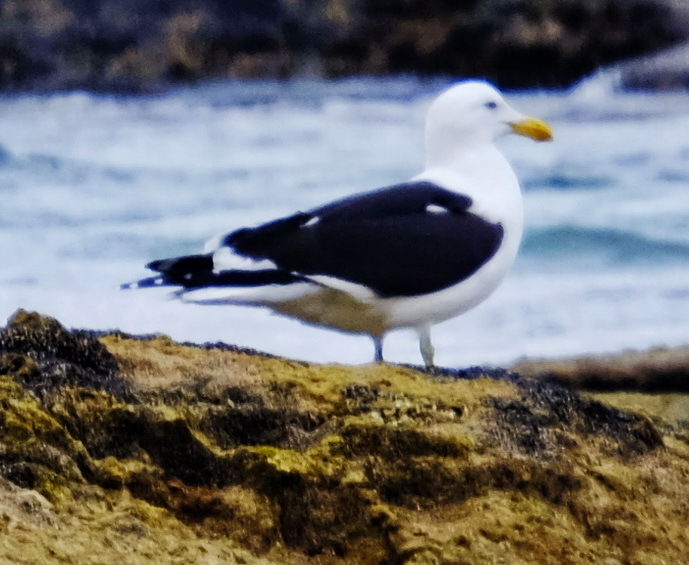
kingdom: Animalia
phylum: Chordata
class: Aves
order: Charadriiformes
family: Laridae
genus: Larus
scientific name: Larus dominicanus
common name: Kelp gull
